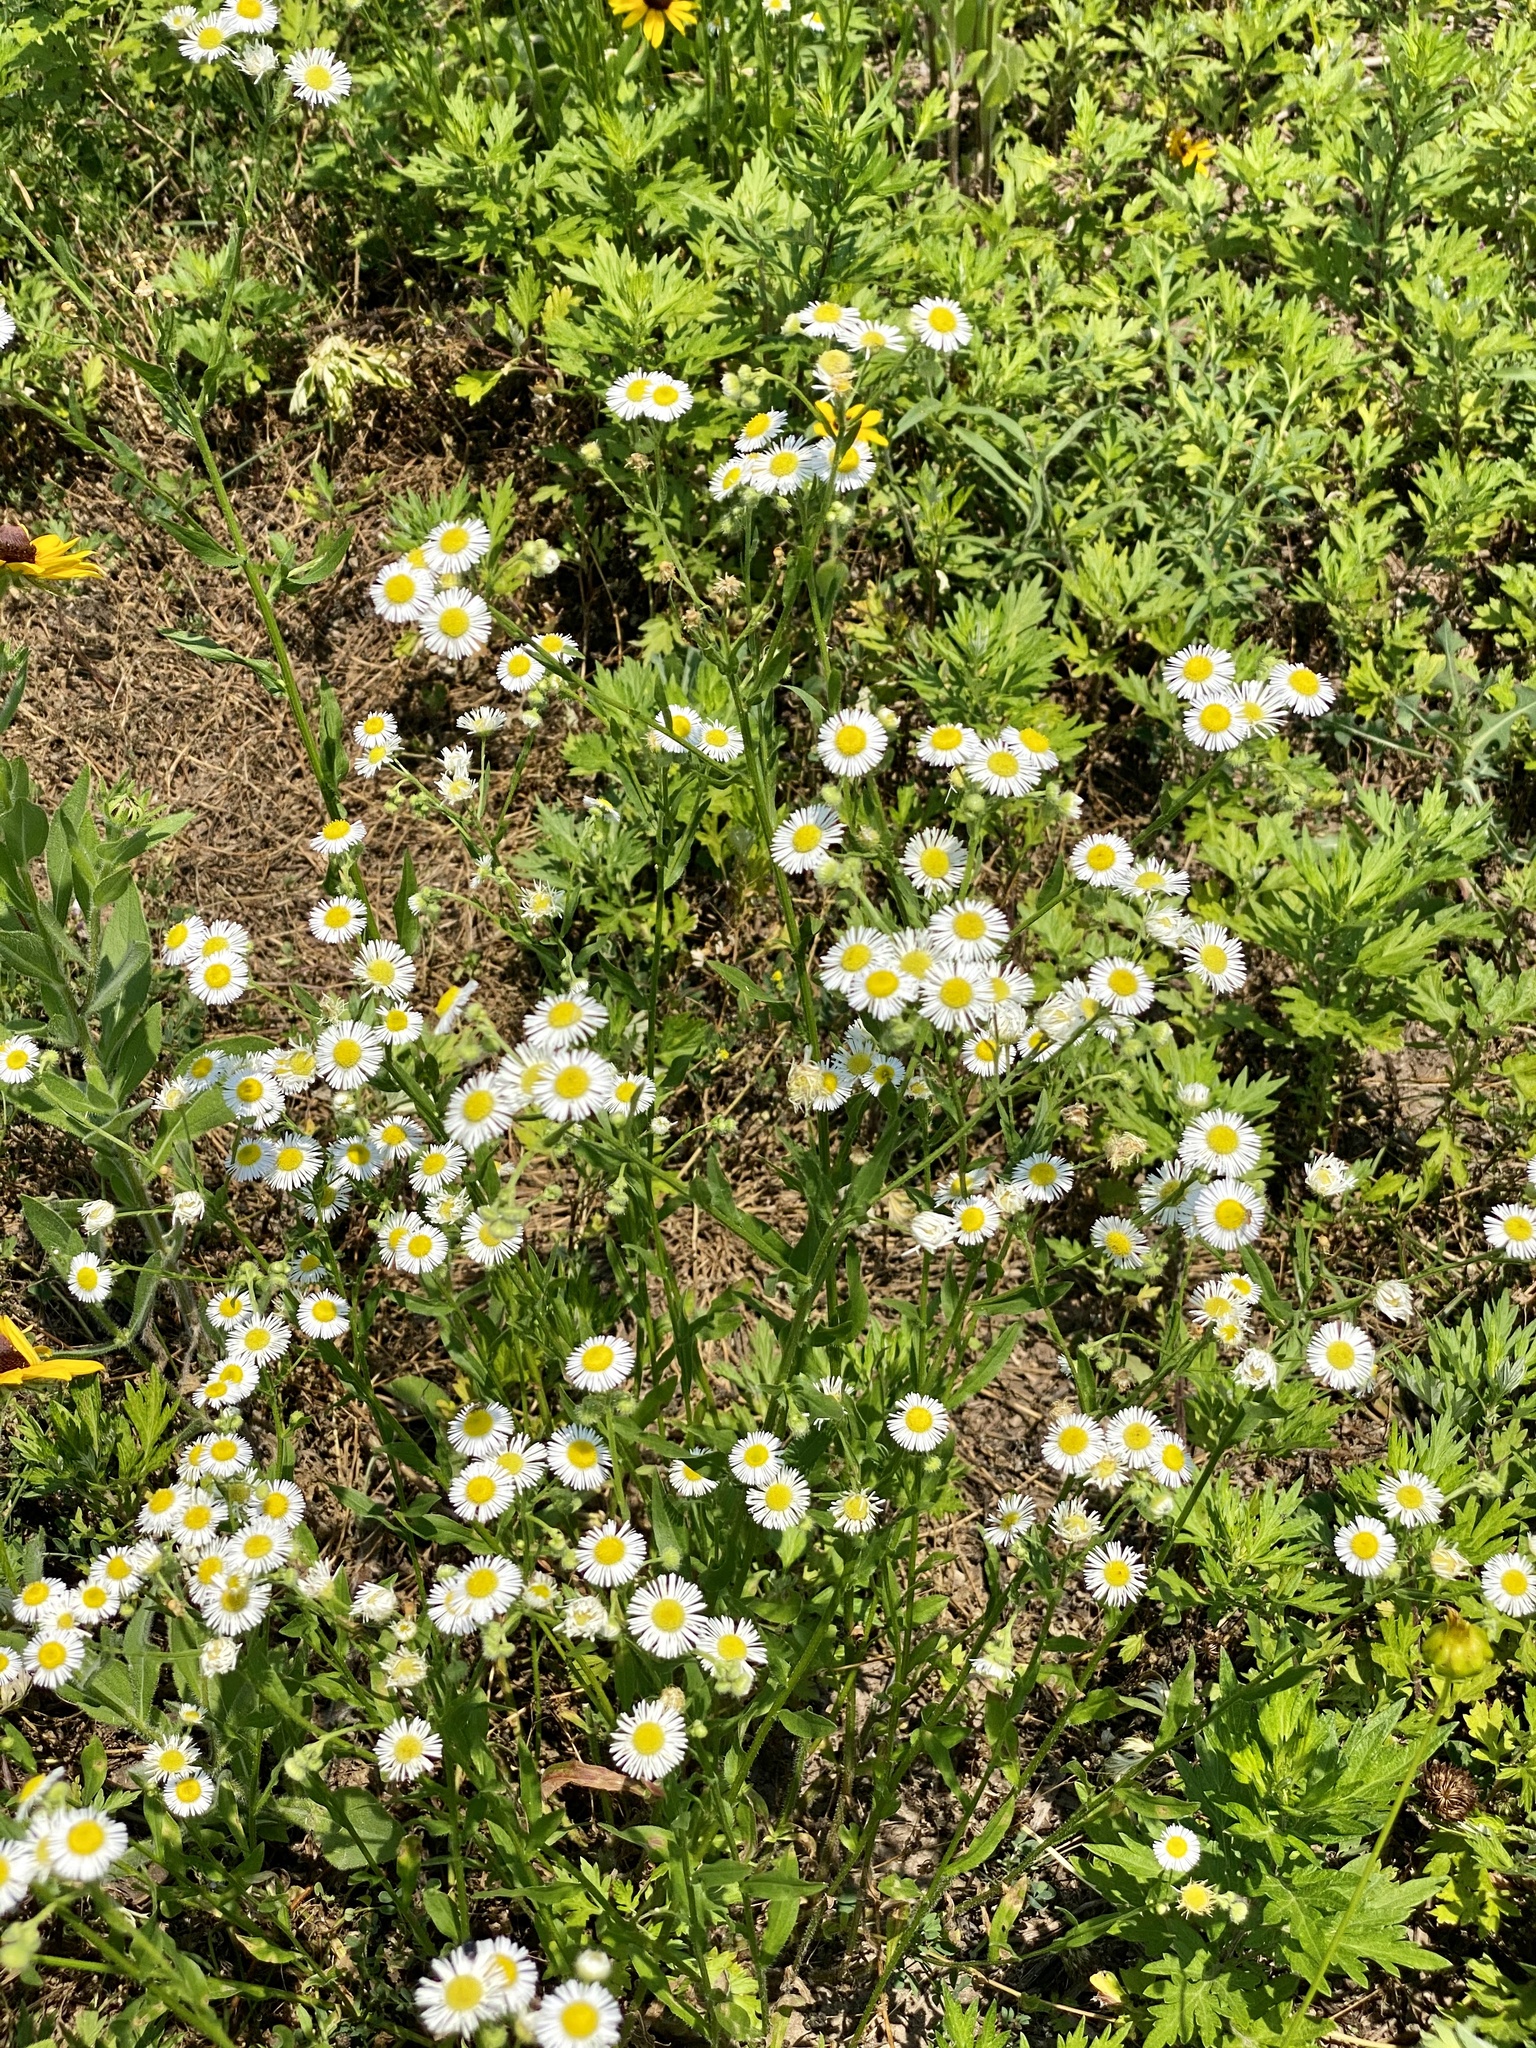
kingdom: Plantae
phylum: Tracheophyta
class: Magnoliopsida
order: Asterales
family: Asteraceae
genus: Erigeron
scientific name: Erigeron annuus
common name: Tall fleabane
